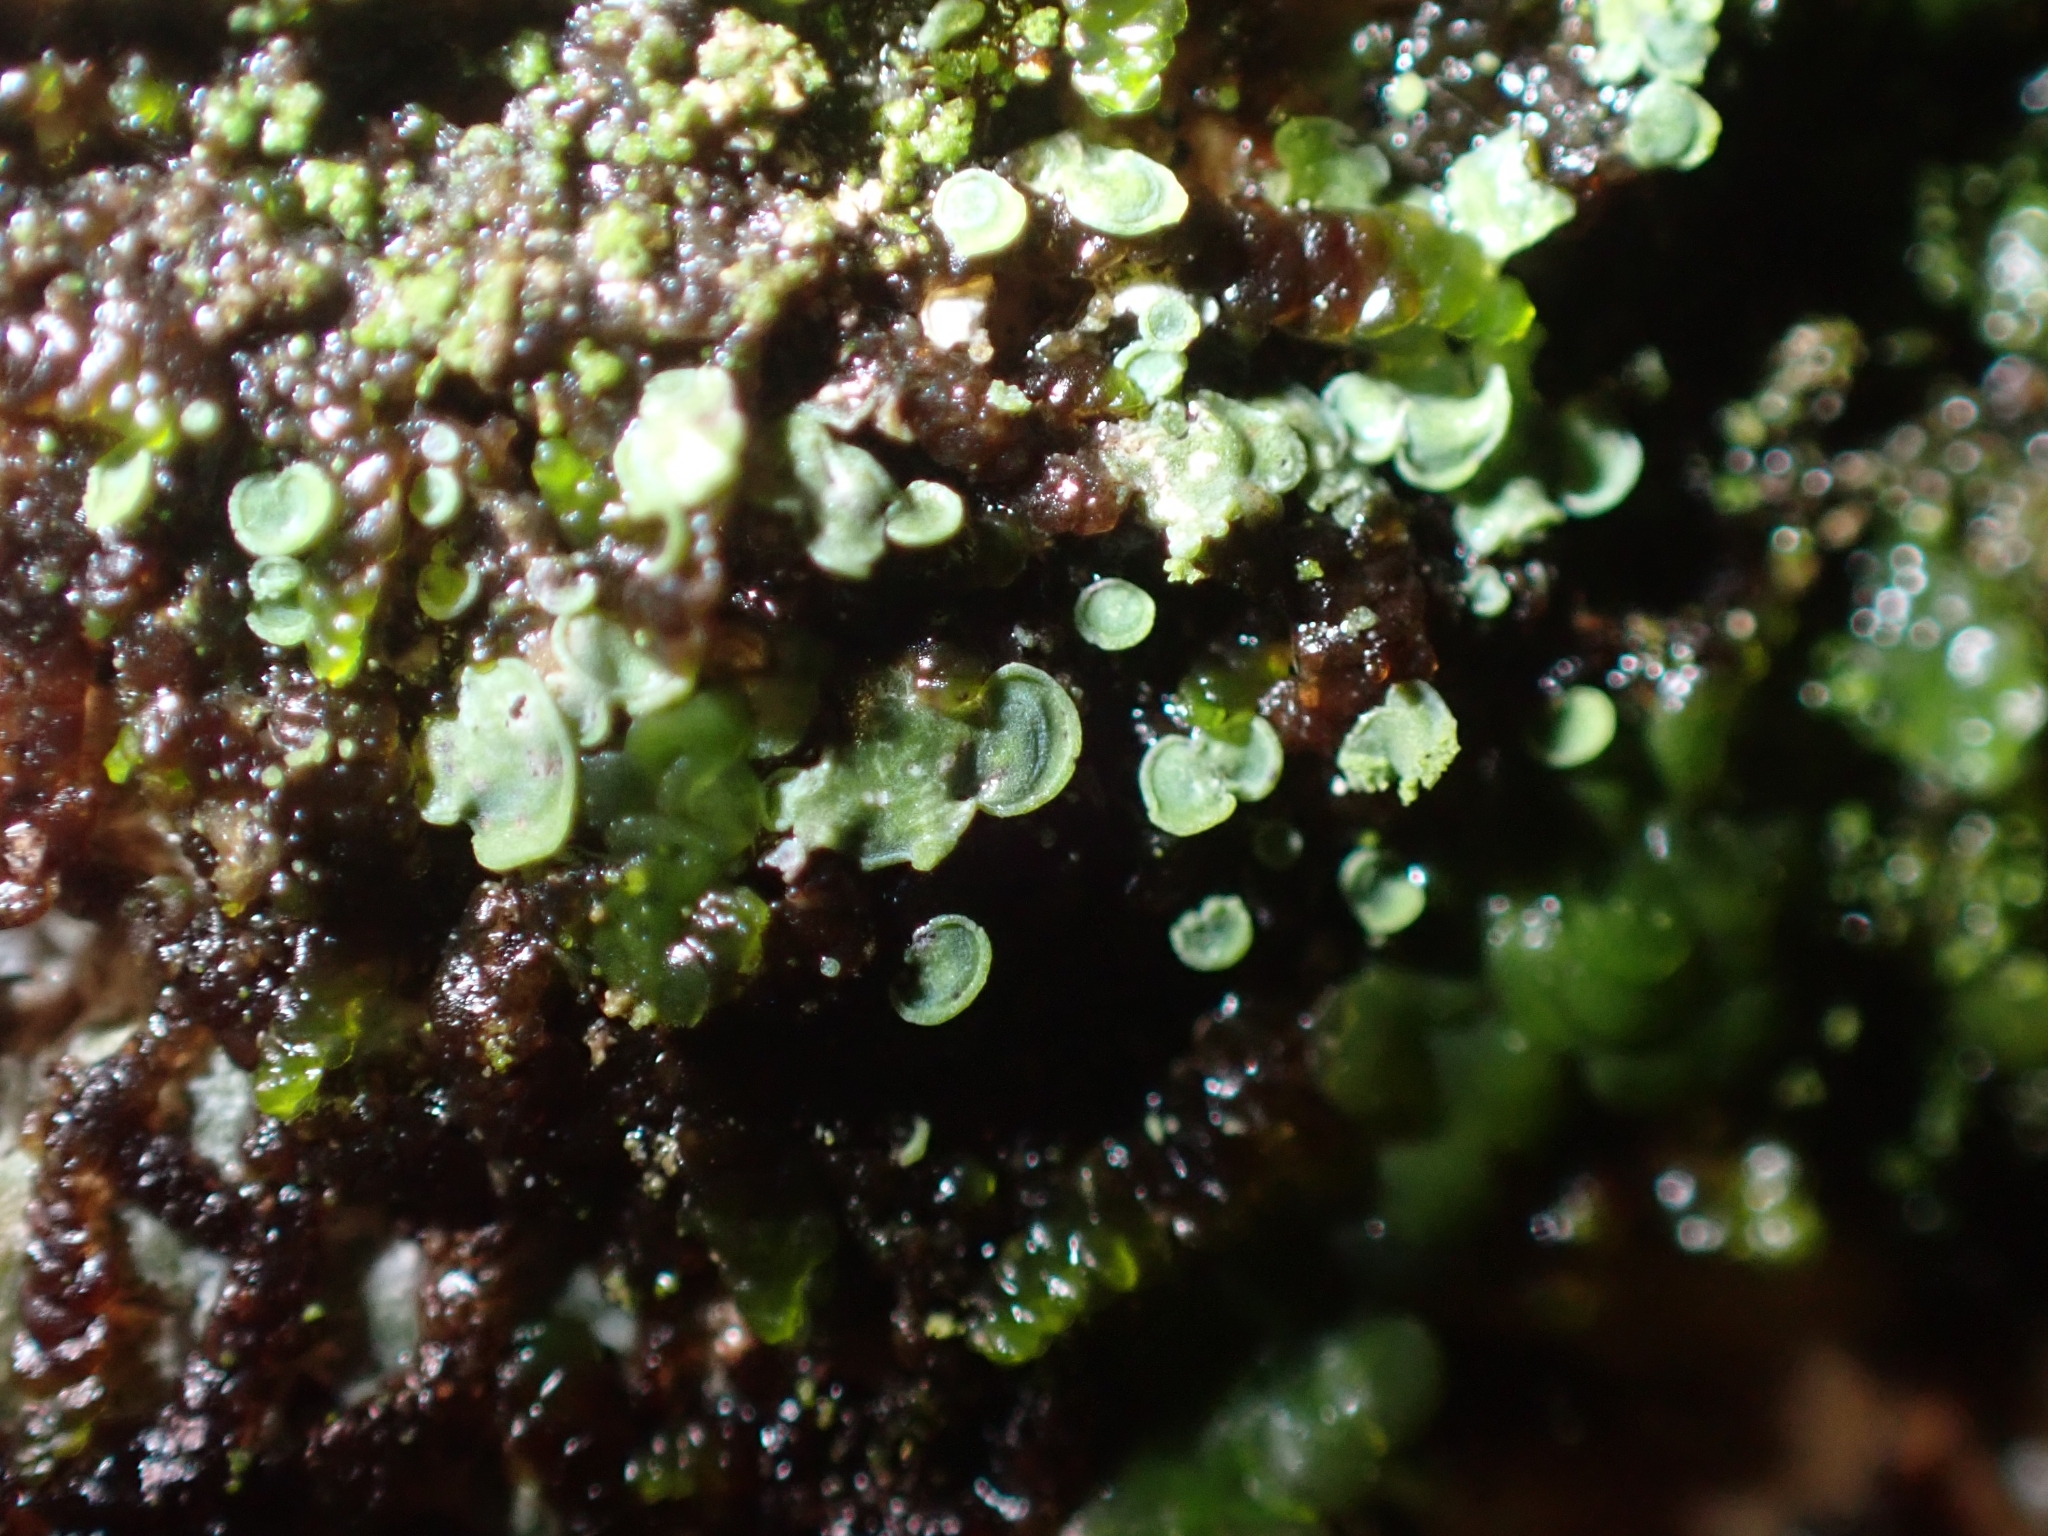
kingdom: Fungi
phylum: Ascomycota
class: Eurotiomycetes
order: Verrucariales
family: Verrucariaceae
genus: Normandina
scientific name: Normandina pulchella
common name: Elf ears lichen
